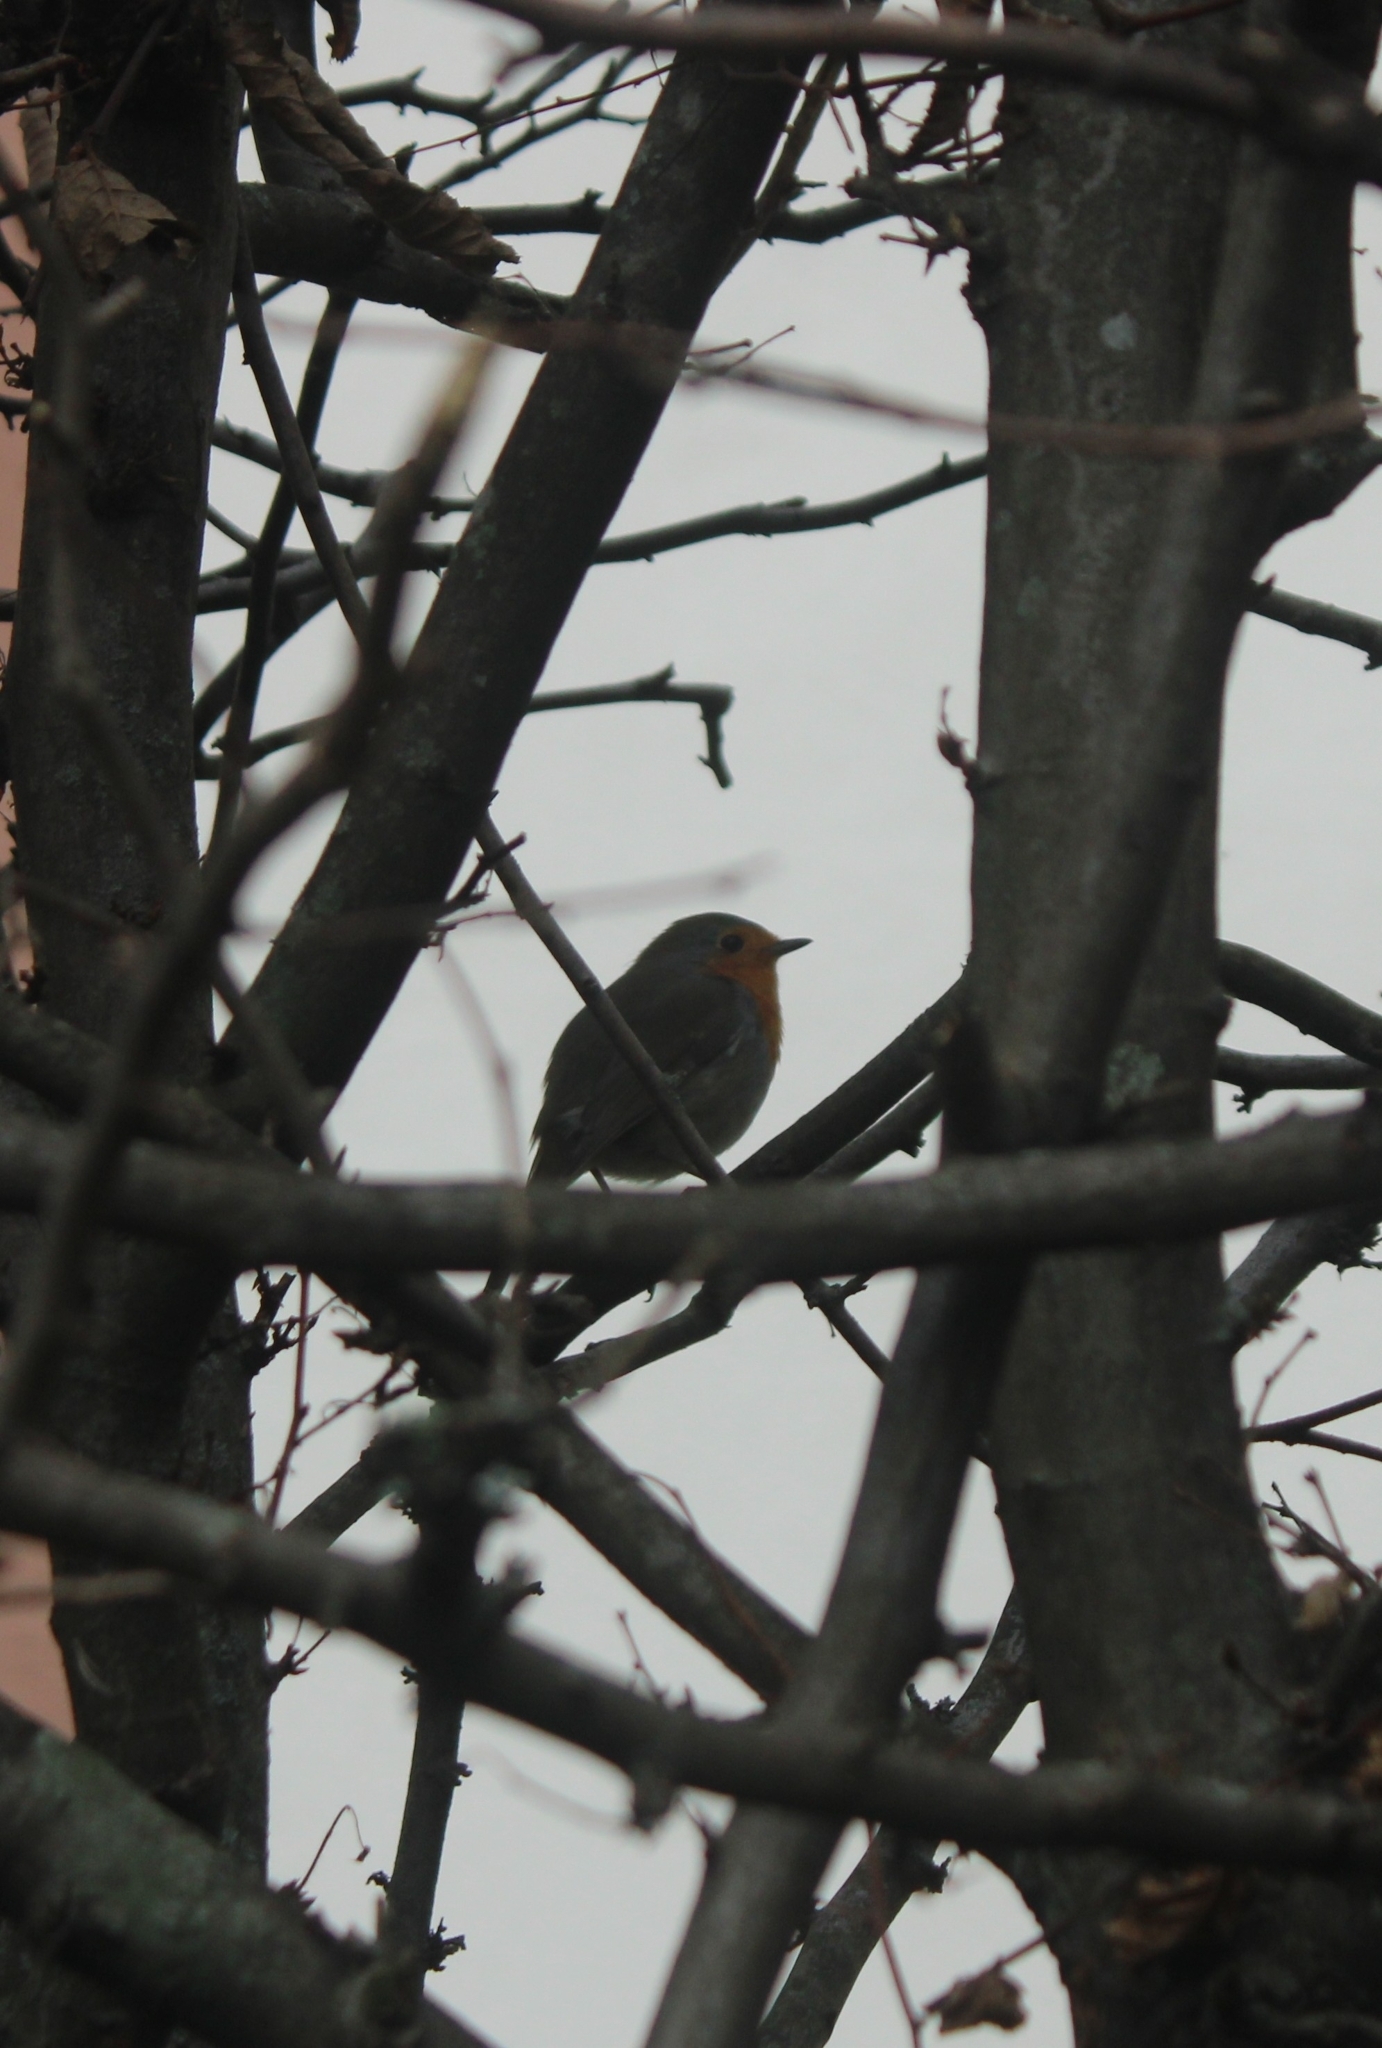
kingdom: Animalia
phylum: Chordata
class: Aves
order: Passeriformes
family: Muscicapidae
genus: Erithacus
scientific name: Erithacus rubecula
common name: European robin
